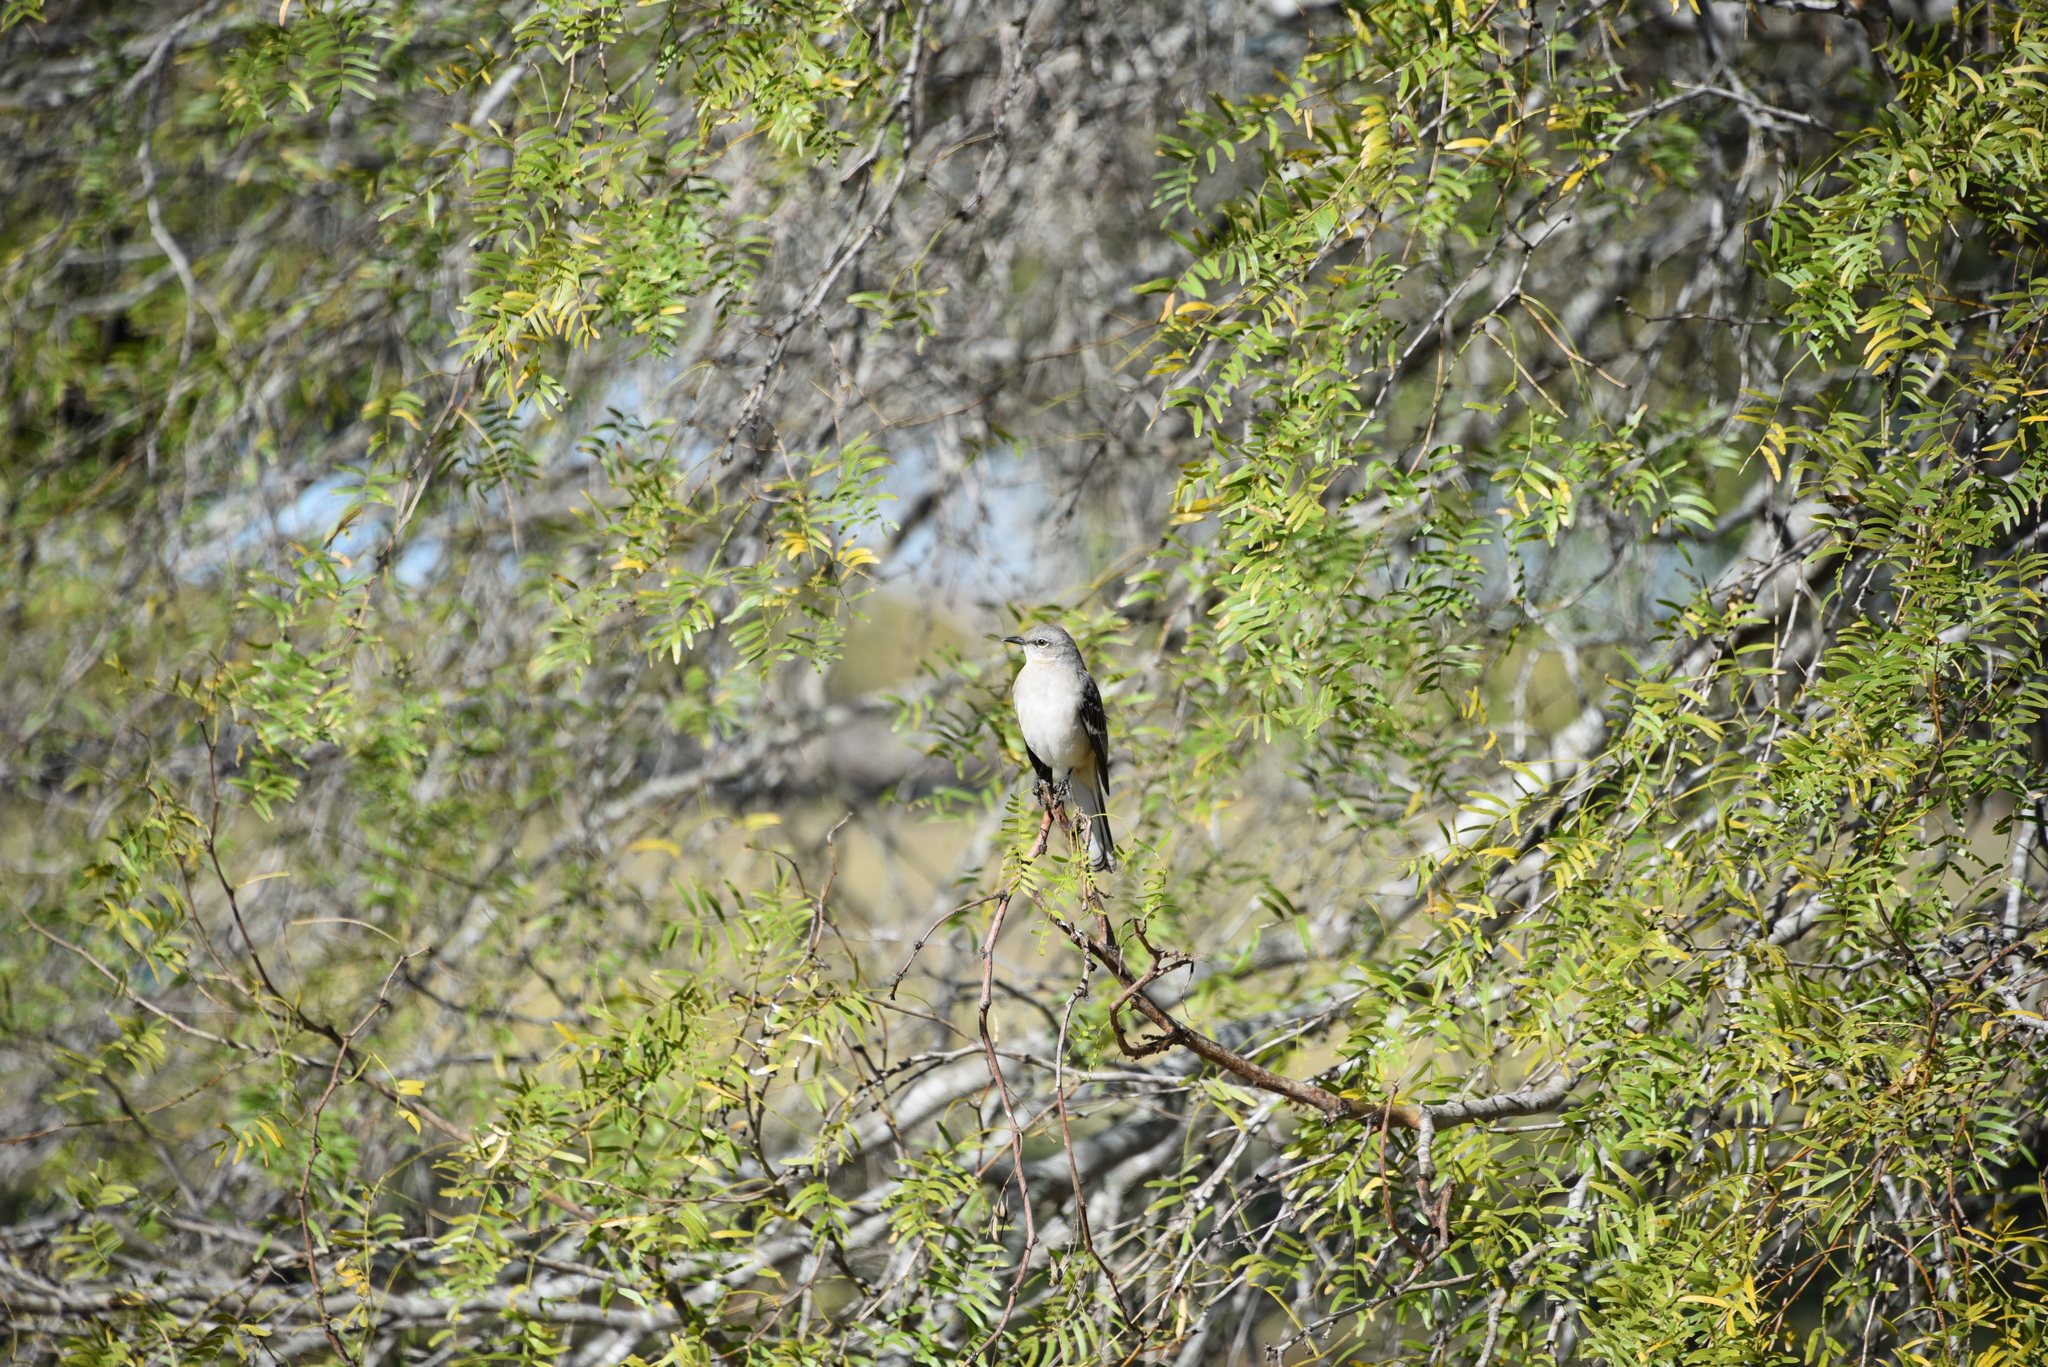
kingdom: Animalia
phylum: Chordata
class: Aves
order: Passeriformes
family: Mimidae
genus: Mimus
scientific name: Mimus polyglottos
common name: Northern mockingbird
